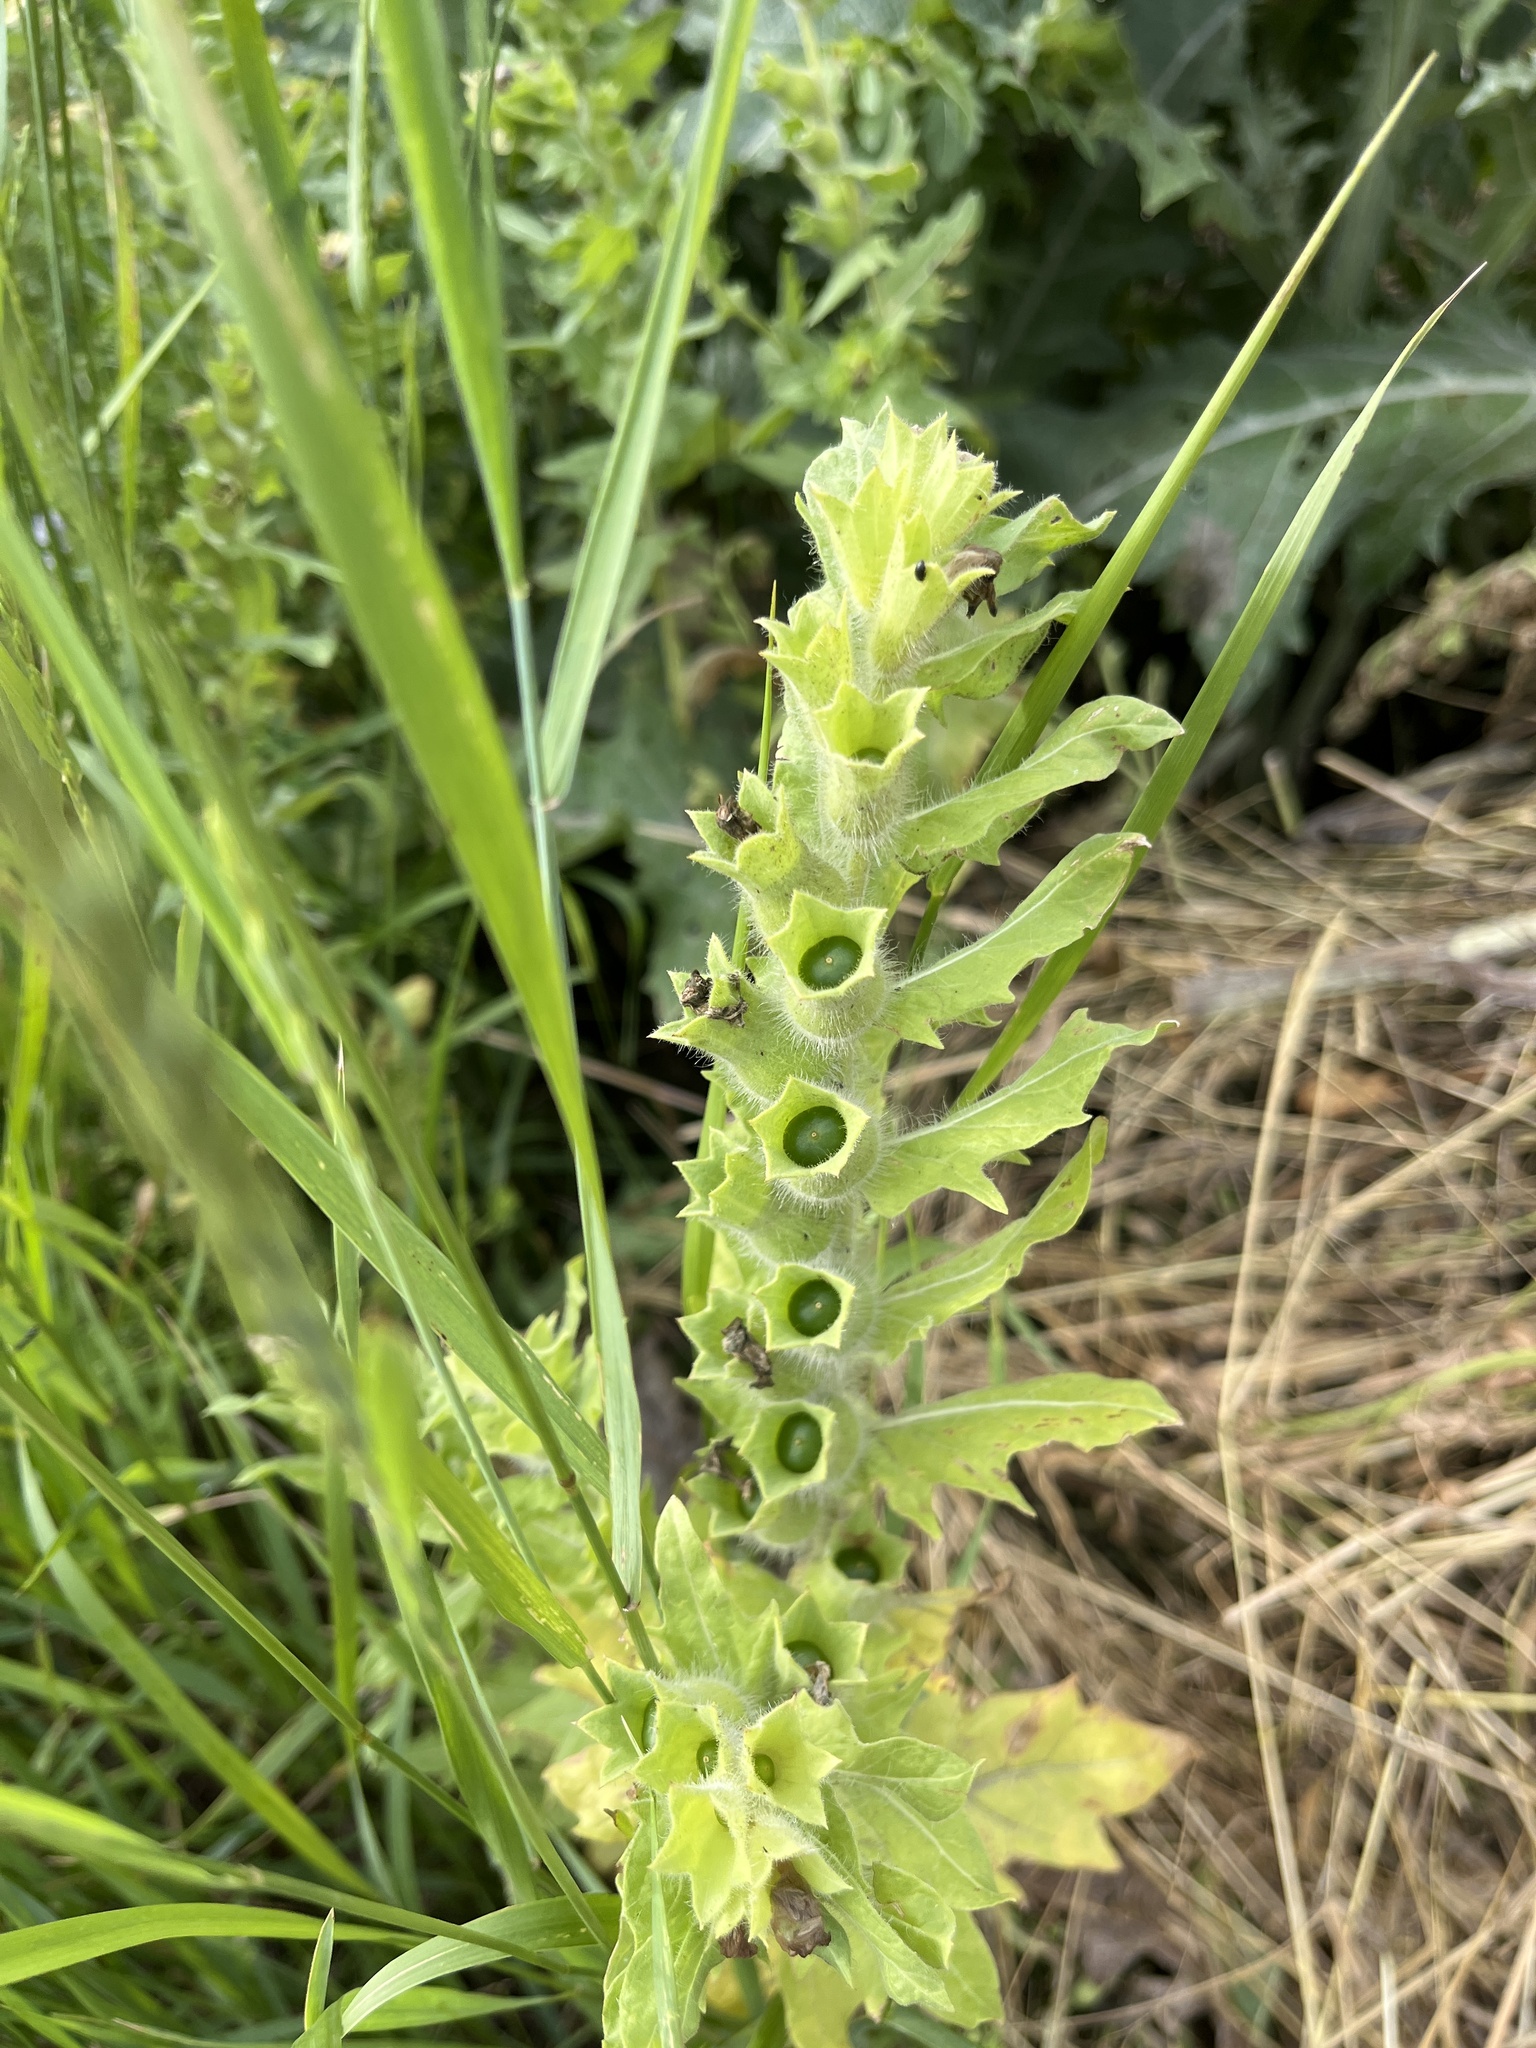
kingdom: Plantae
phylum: Tracheophyta
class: Magnoliopsida
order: Solanales
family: Solanaceae
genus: Hyoscyamus
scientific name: Hyoscyamus niger
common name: Henbane
